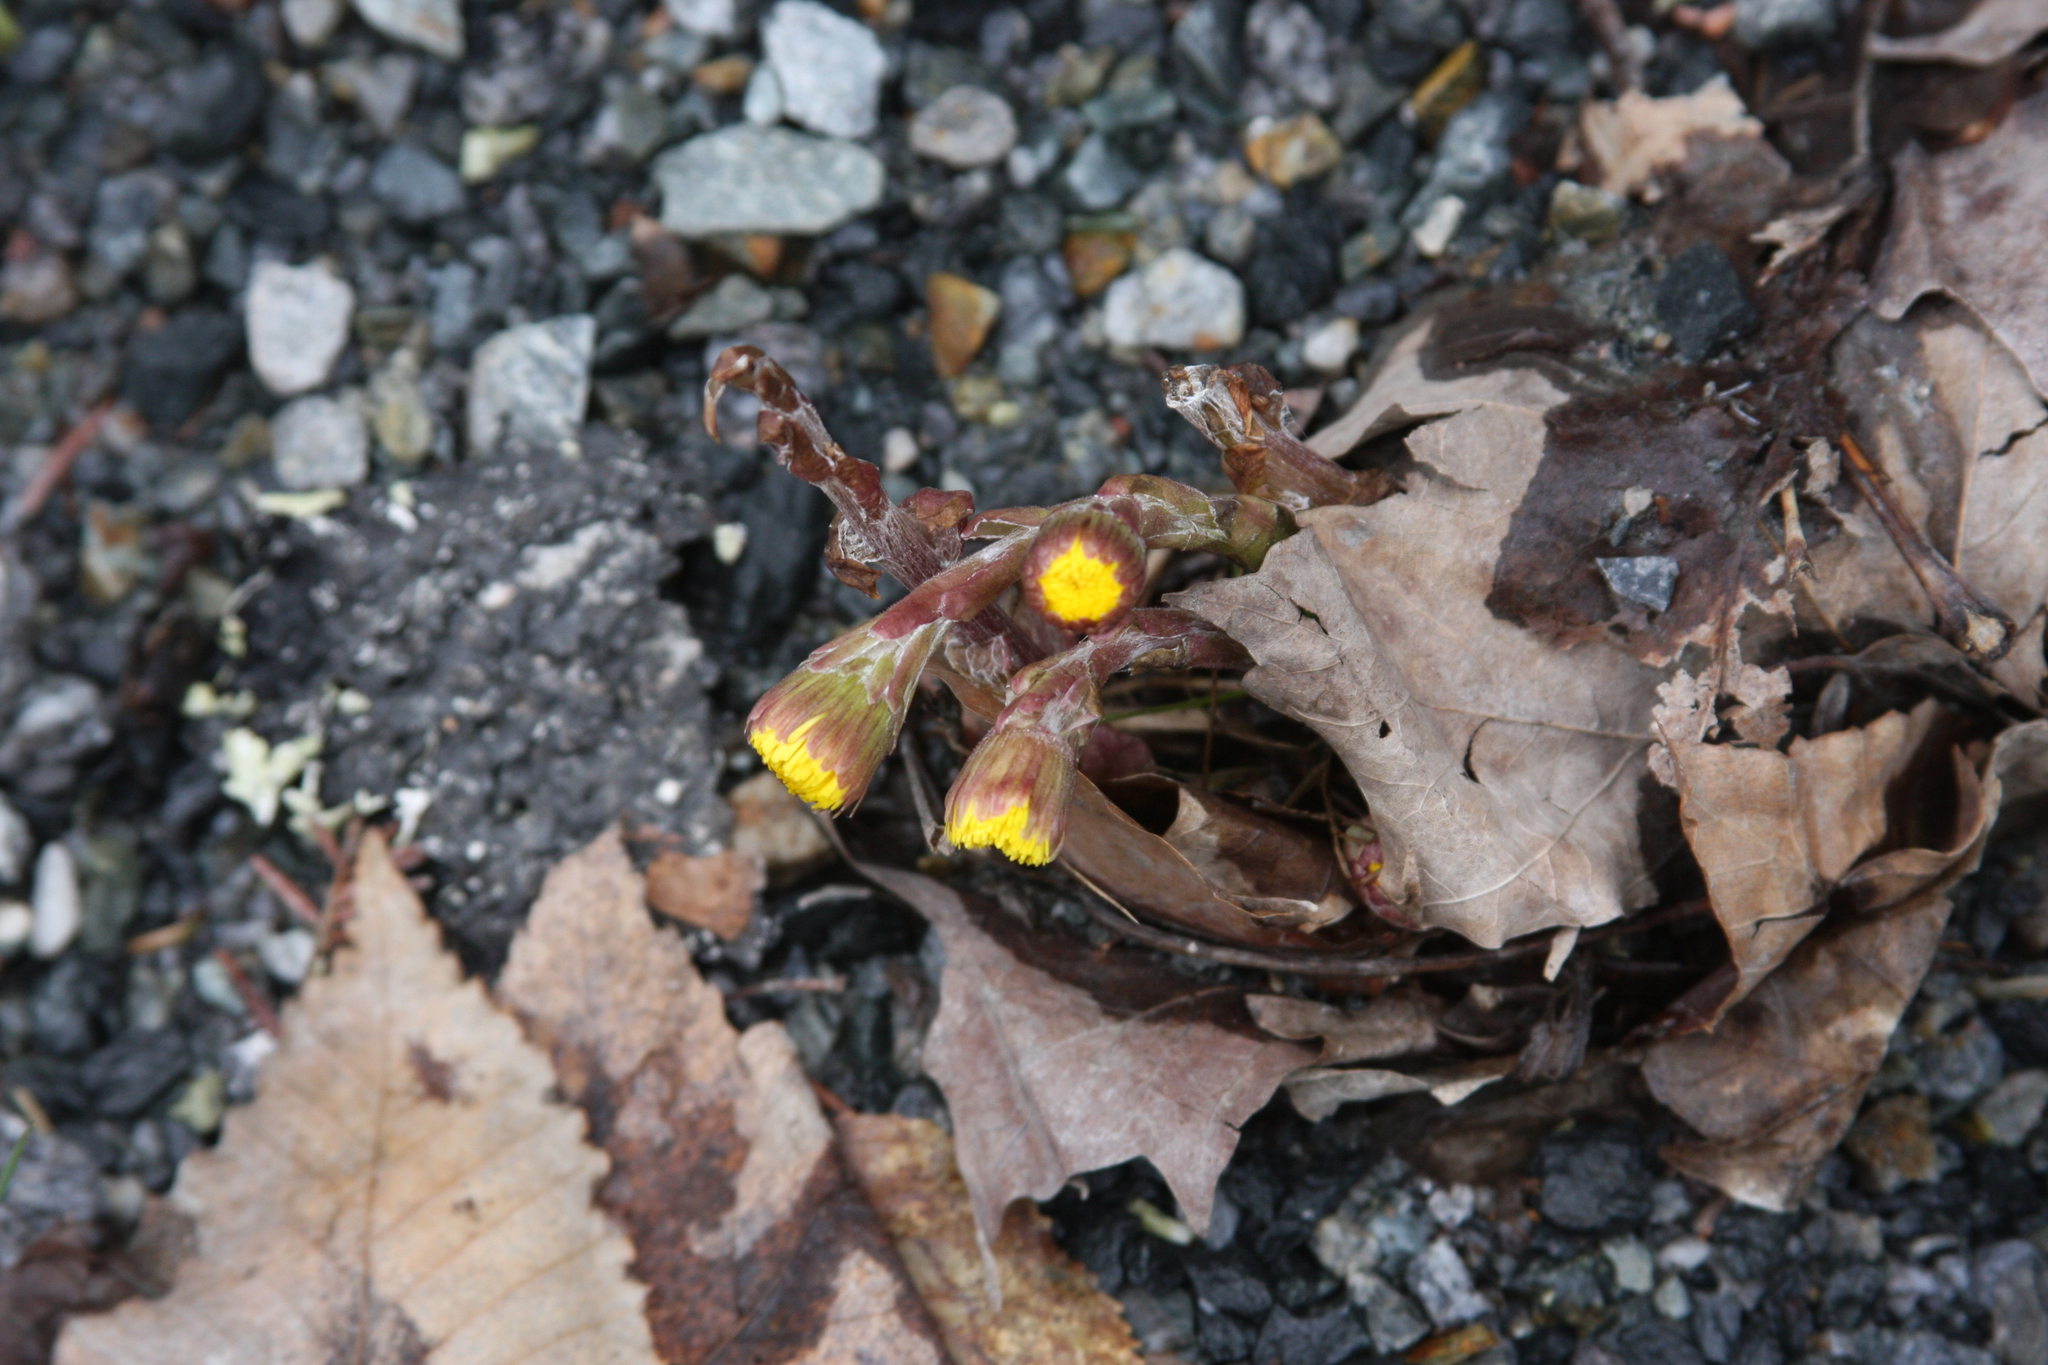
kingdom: Plantae
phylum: Tracheophyta
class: Magnoliopsida
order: Asterales
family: Asteraceae
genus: Tussilago
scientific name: Tussilago farfara
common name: Coltsfoot
